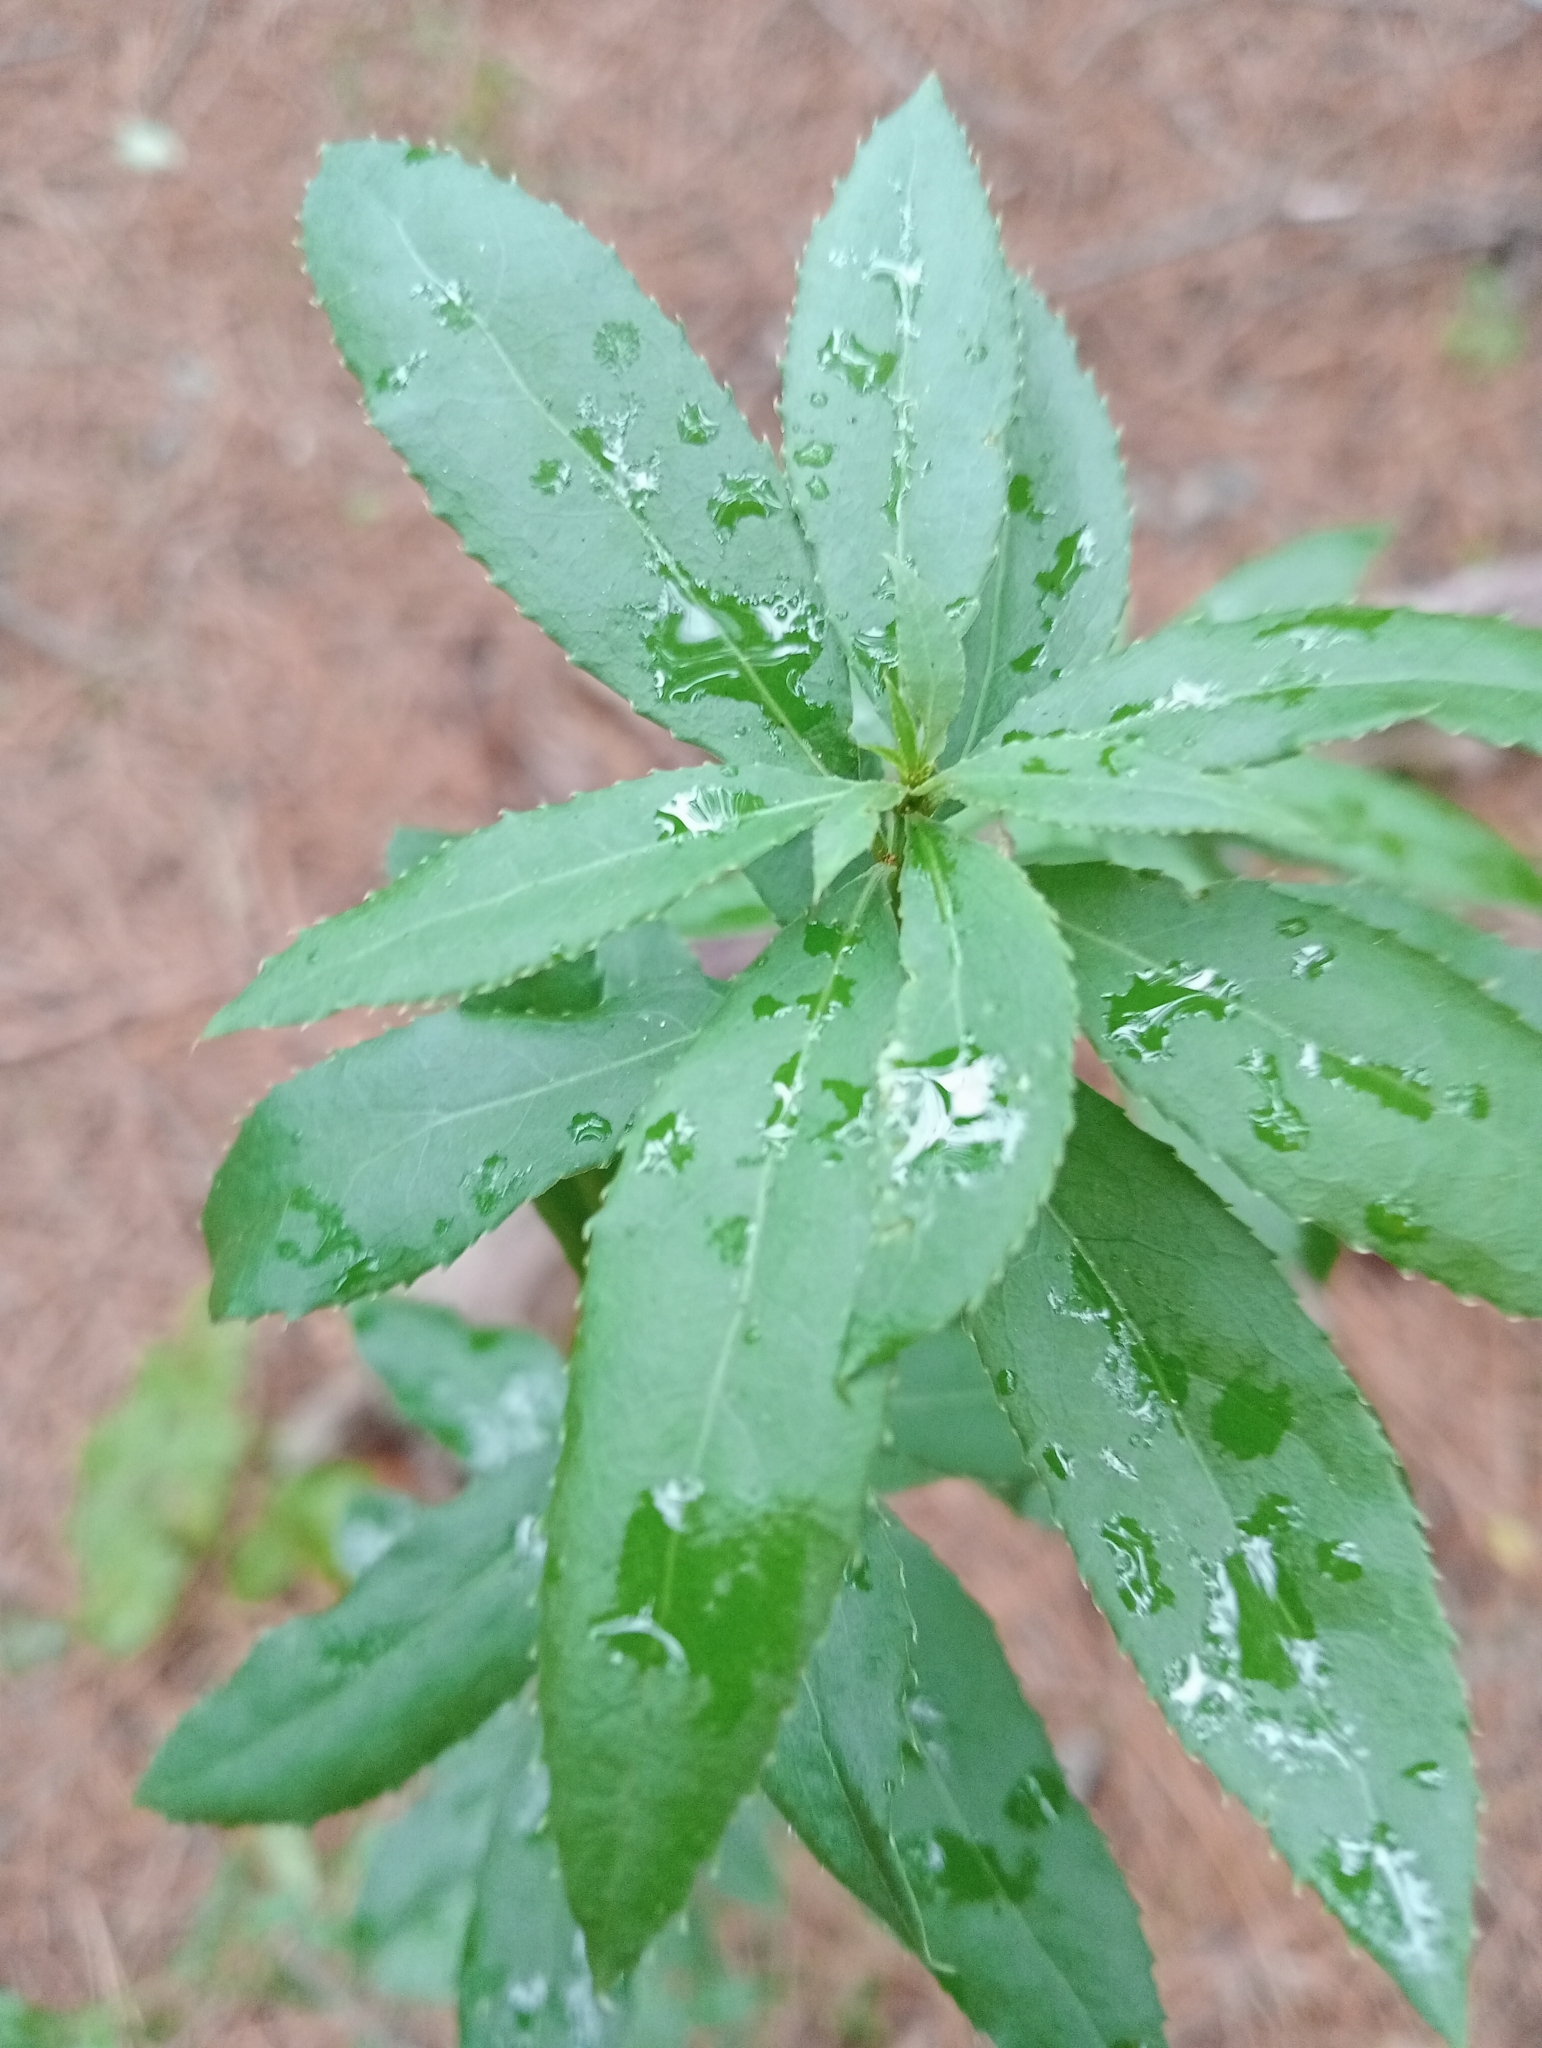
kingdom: Plantae
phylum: Tracheophyta
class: Magnoliopsida
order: Celastrales
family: Celastraceae
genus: Maytenus
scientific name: Maytenus boaria
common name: Mayten
